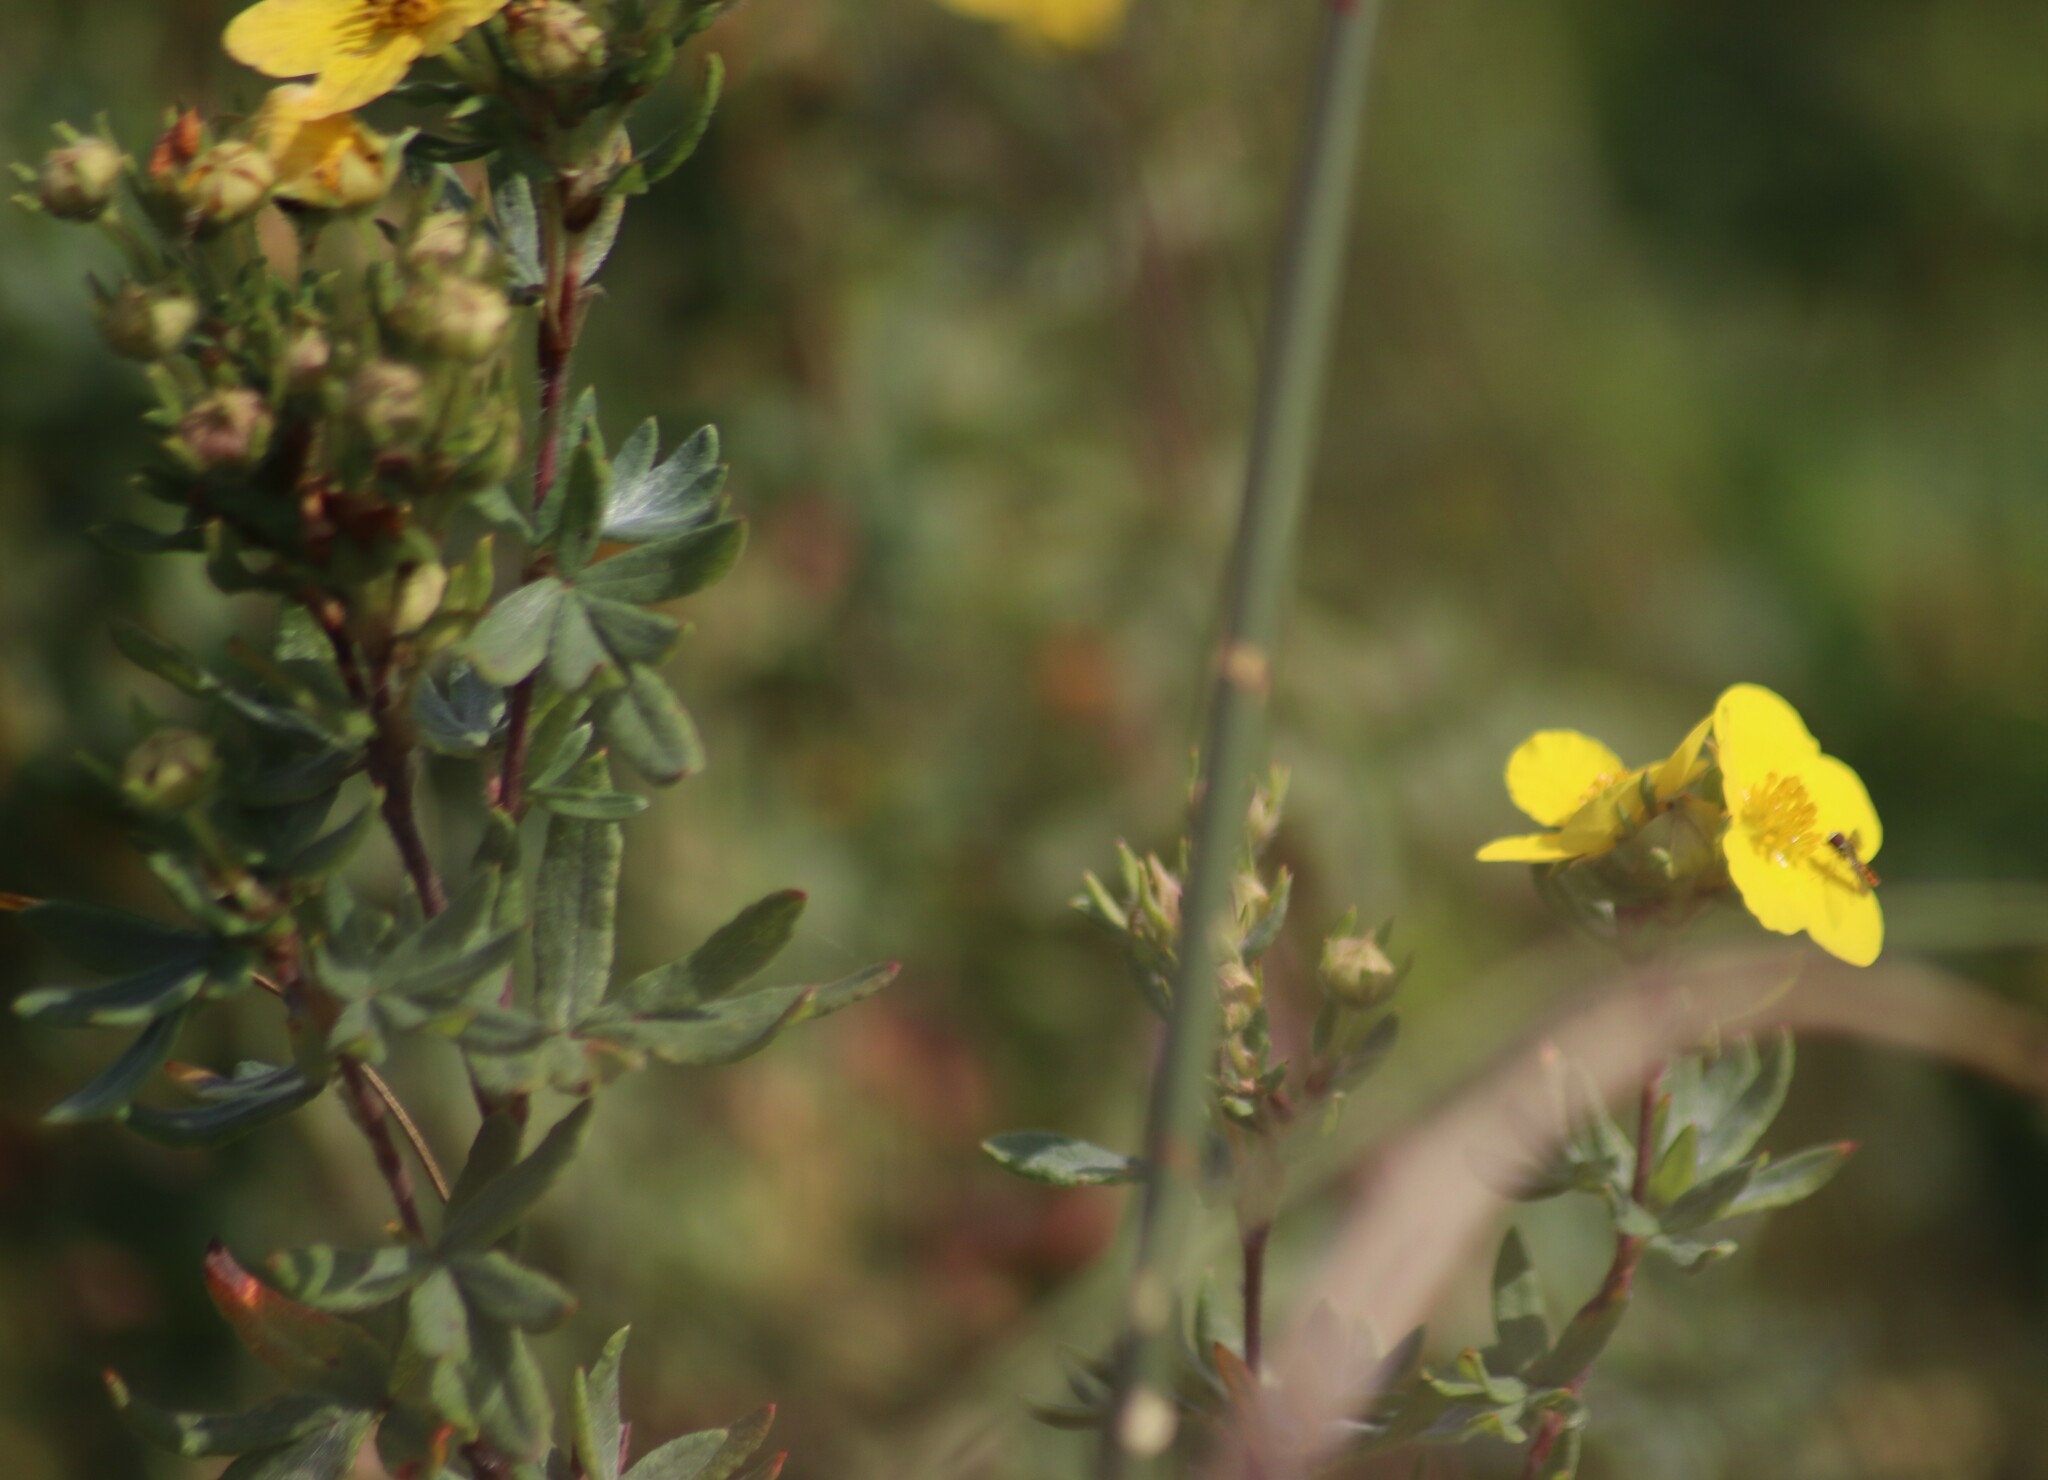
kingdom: Plantae
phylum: Tracheophyta
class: Magnoliopsida
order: Rosales
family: Rosaceae
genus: Dasiphora
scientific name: Dasiphora fruticosa
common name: Shrubby cinquefoil
